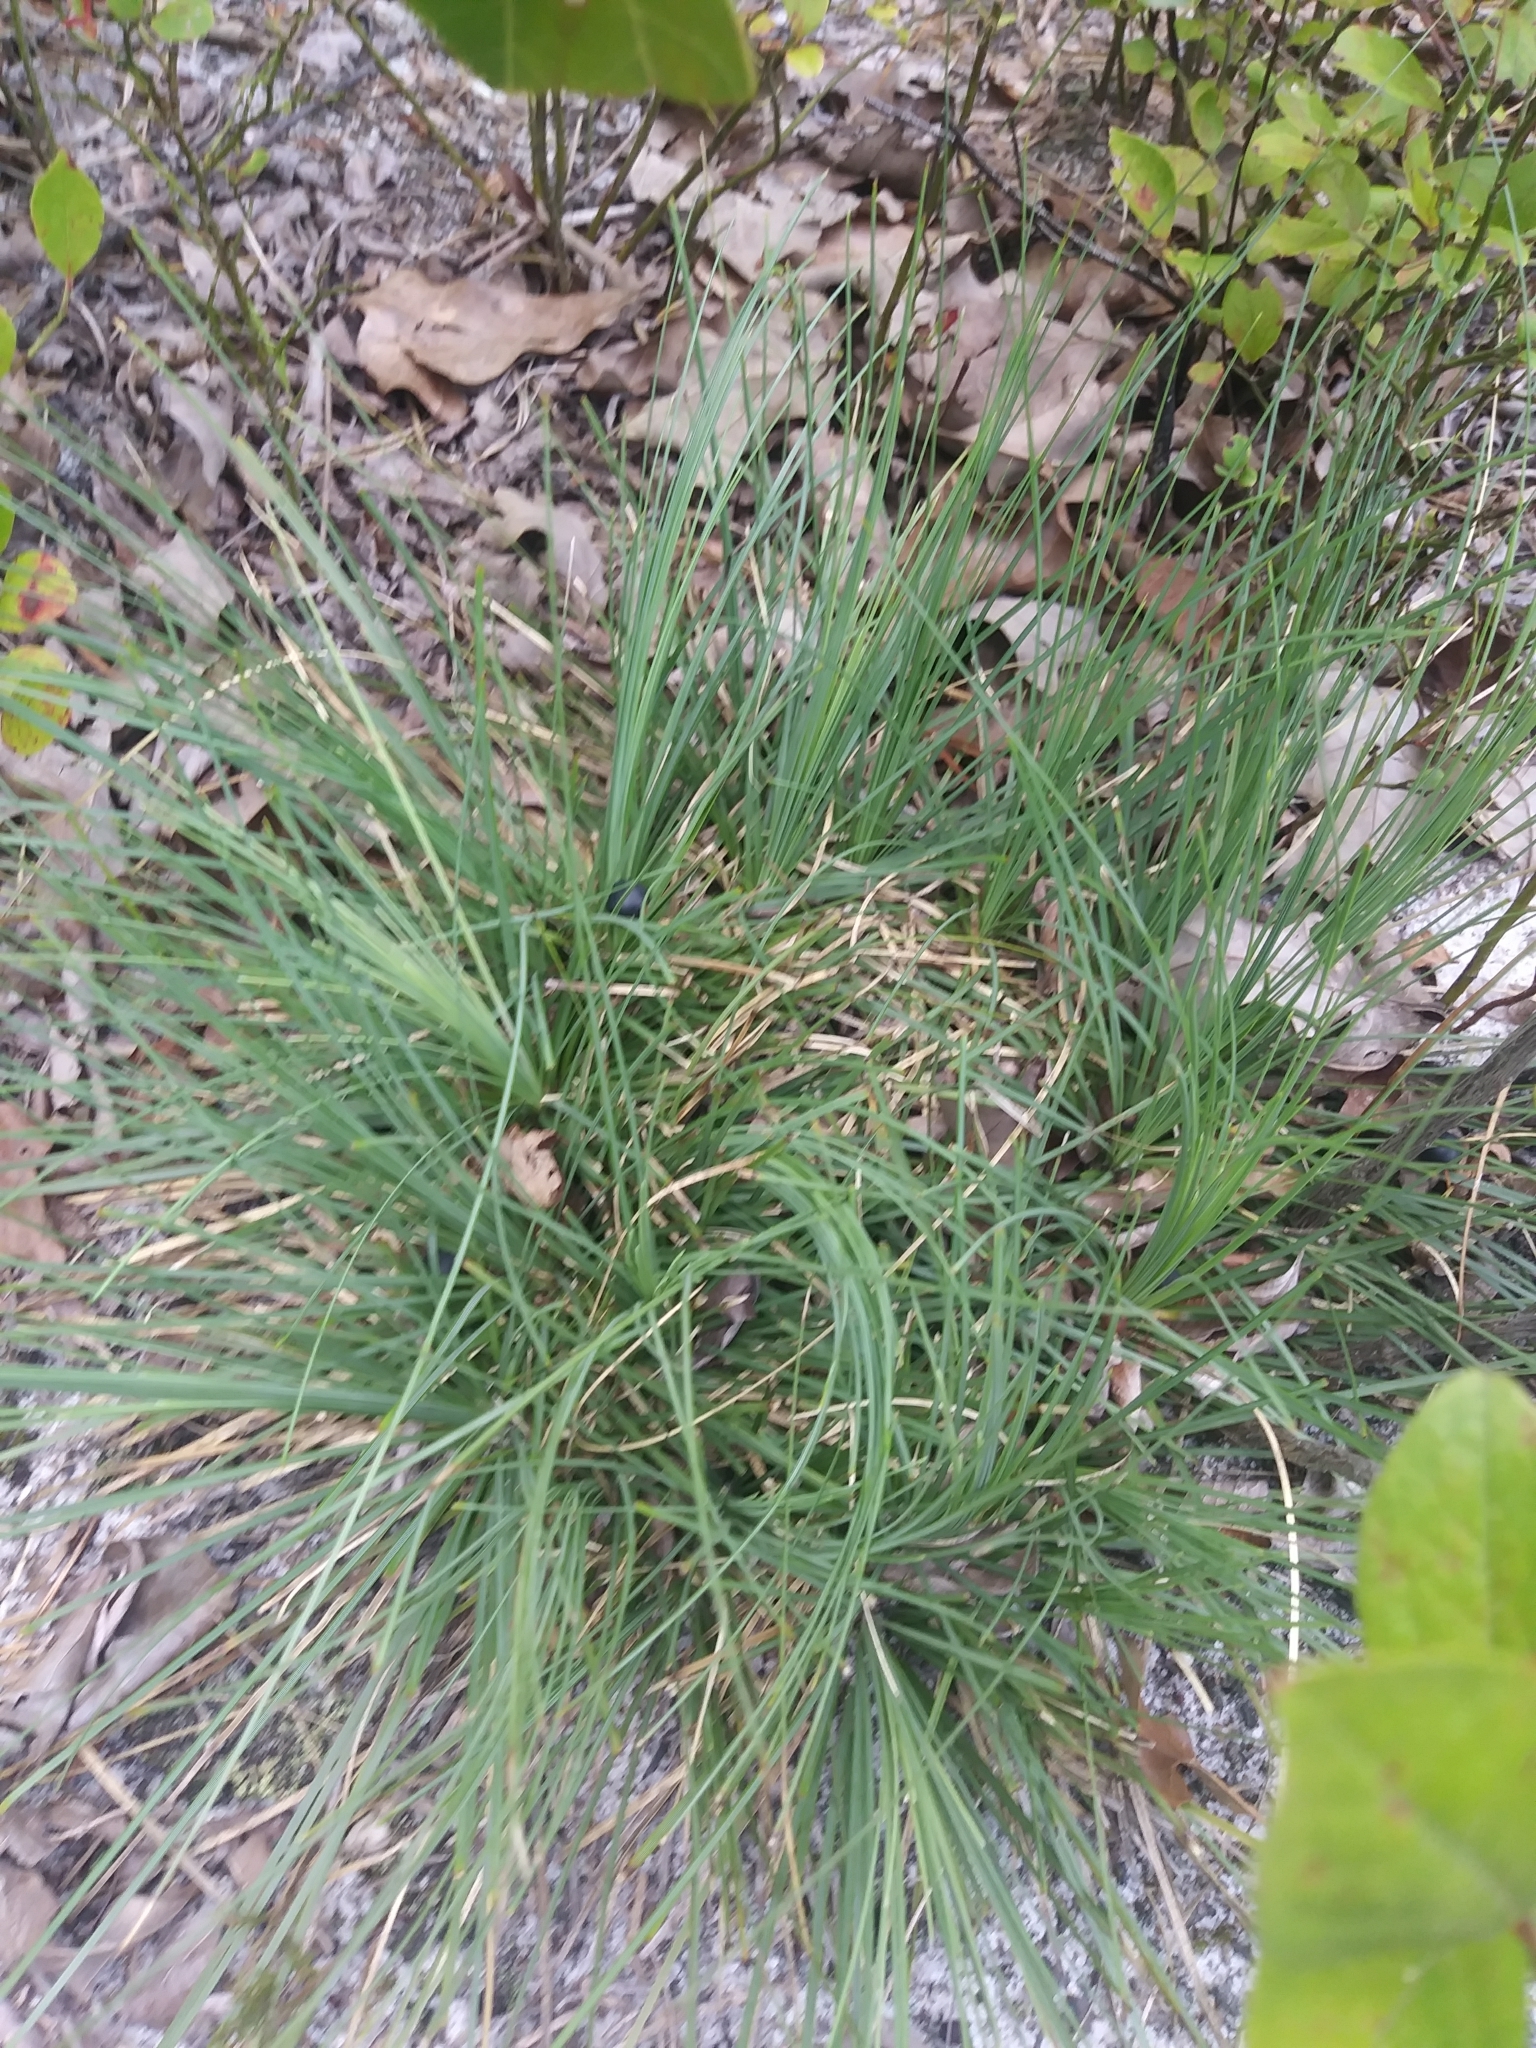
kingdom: Plantae
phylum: Tracheophyta
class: Liliopsida
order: Liliales
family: Melanthiaceae
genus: Xerophyllum
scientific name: Xerophyllum asphodeloides
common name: Mountain-asphodel
